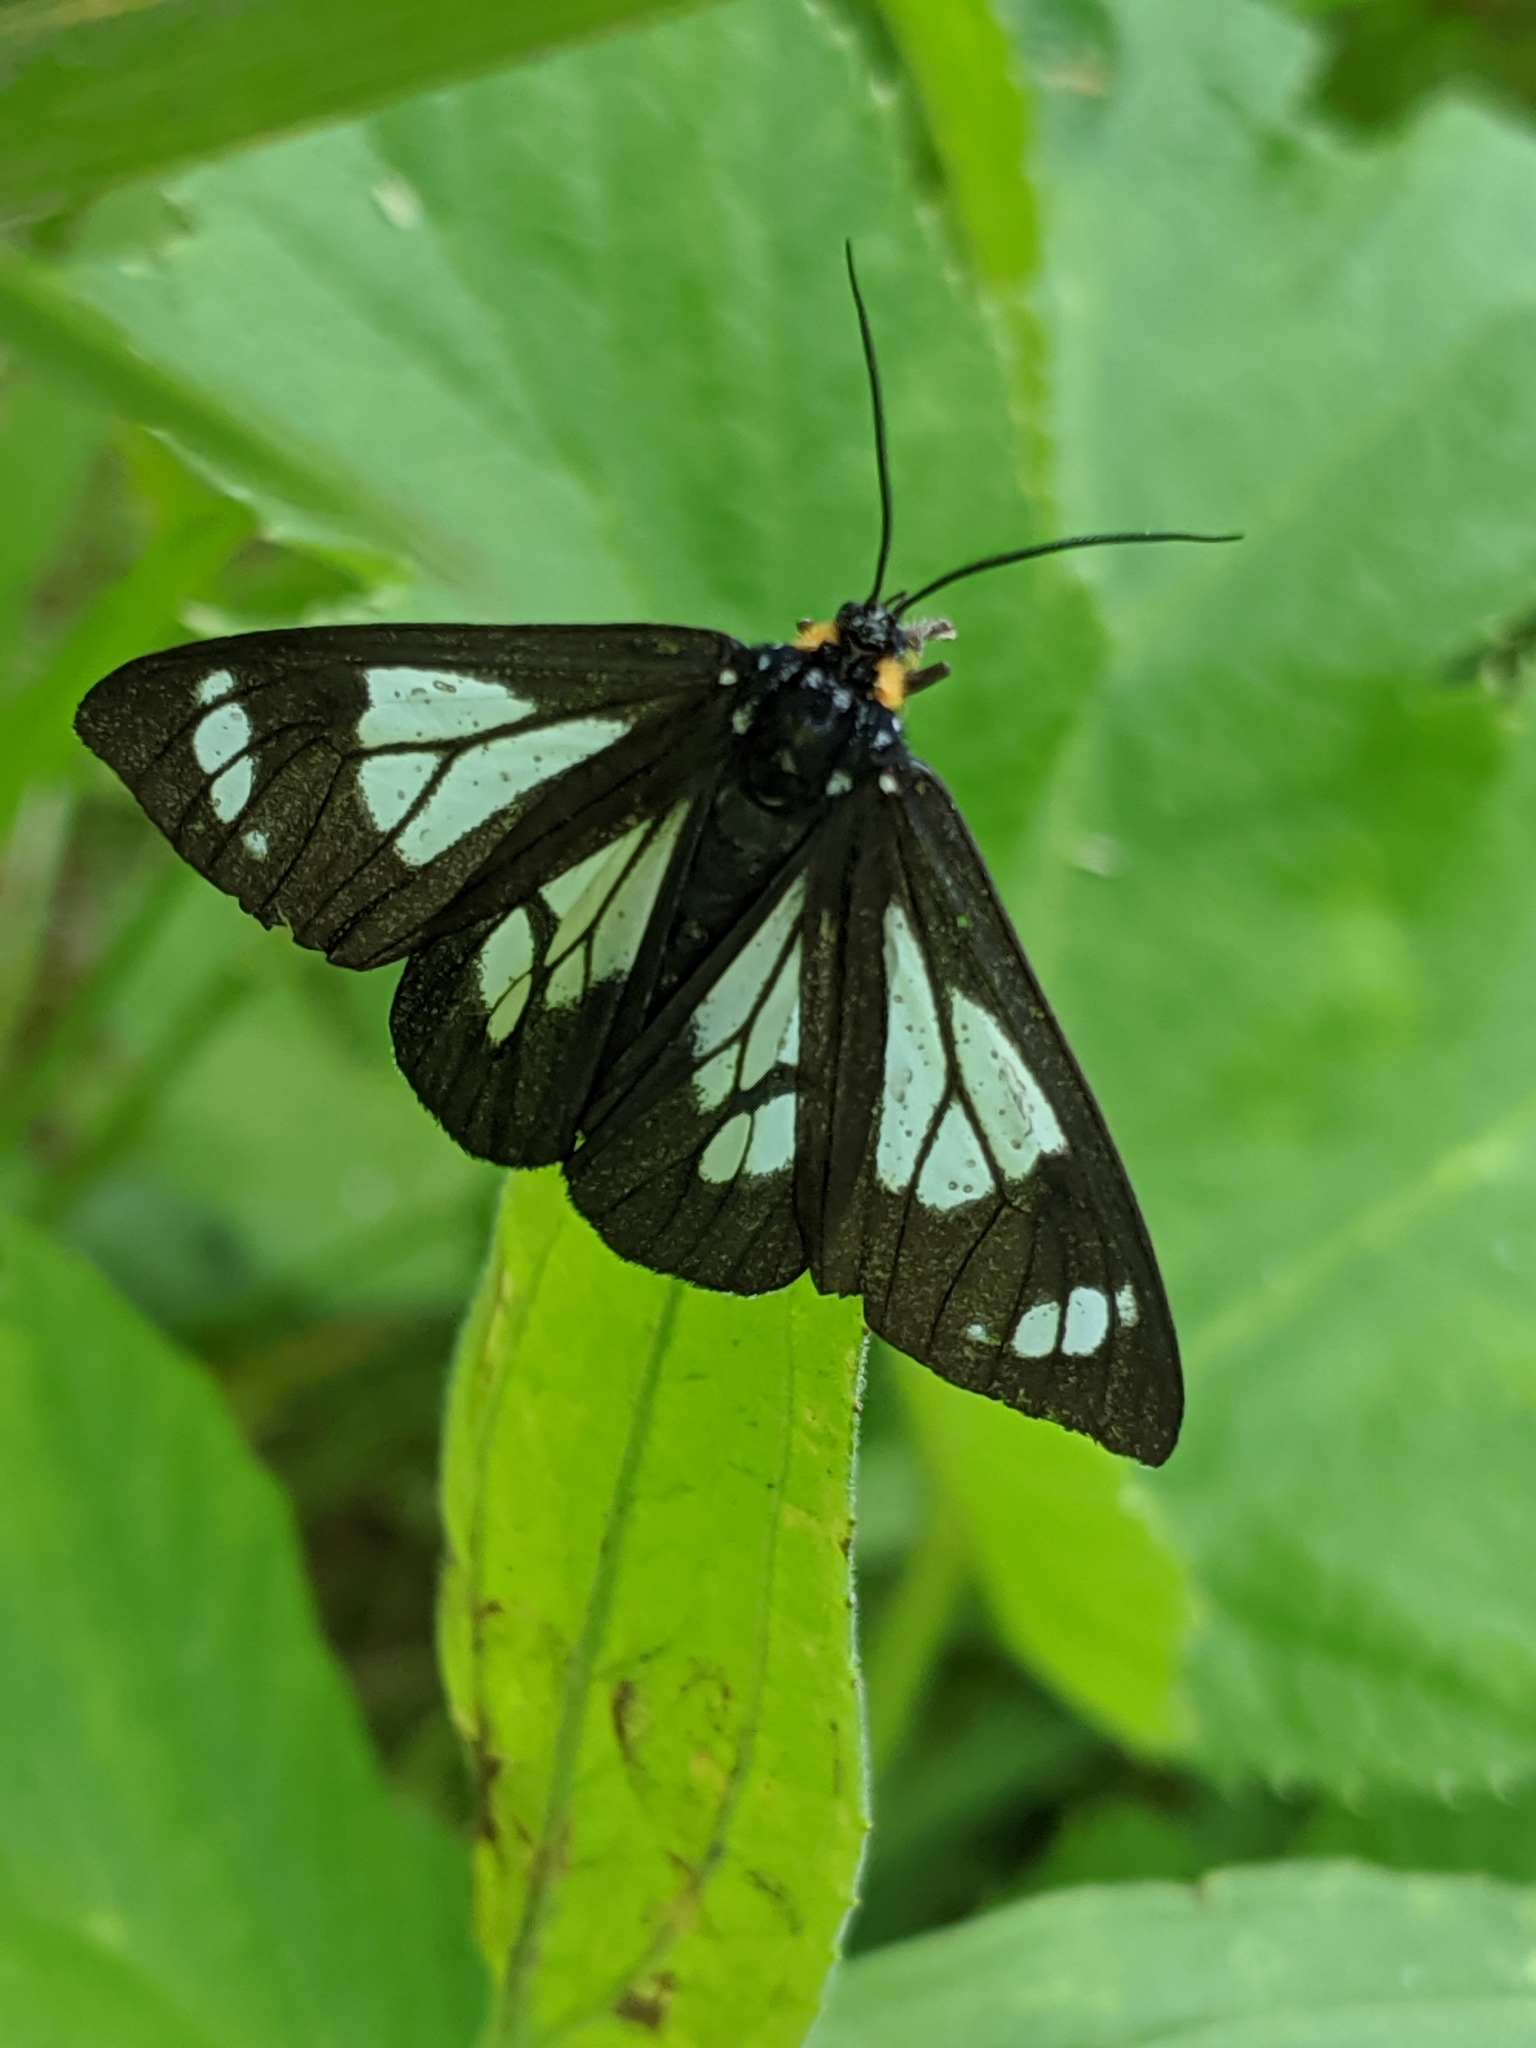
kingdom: Animalia
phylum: Arthropoda
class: Insecta
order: Lepidoptera
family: Erebidae
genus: Gnophaela
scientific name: Gnophaela vermiculata
